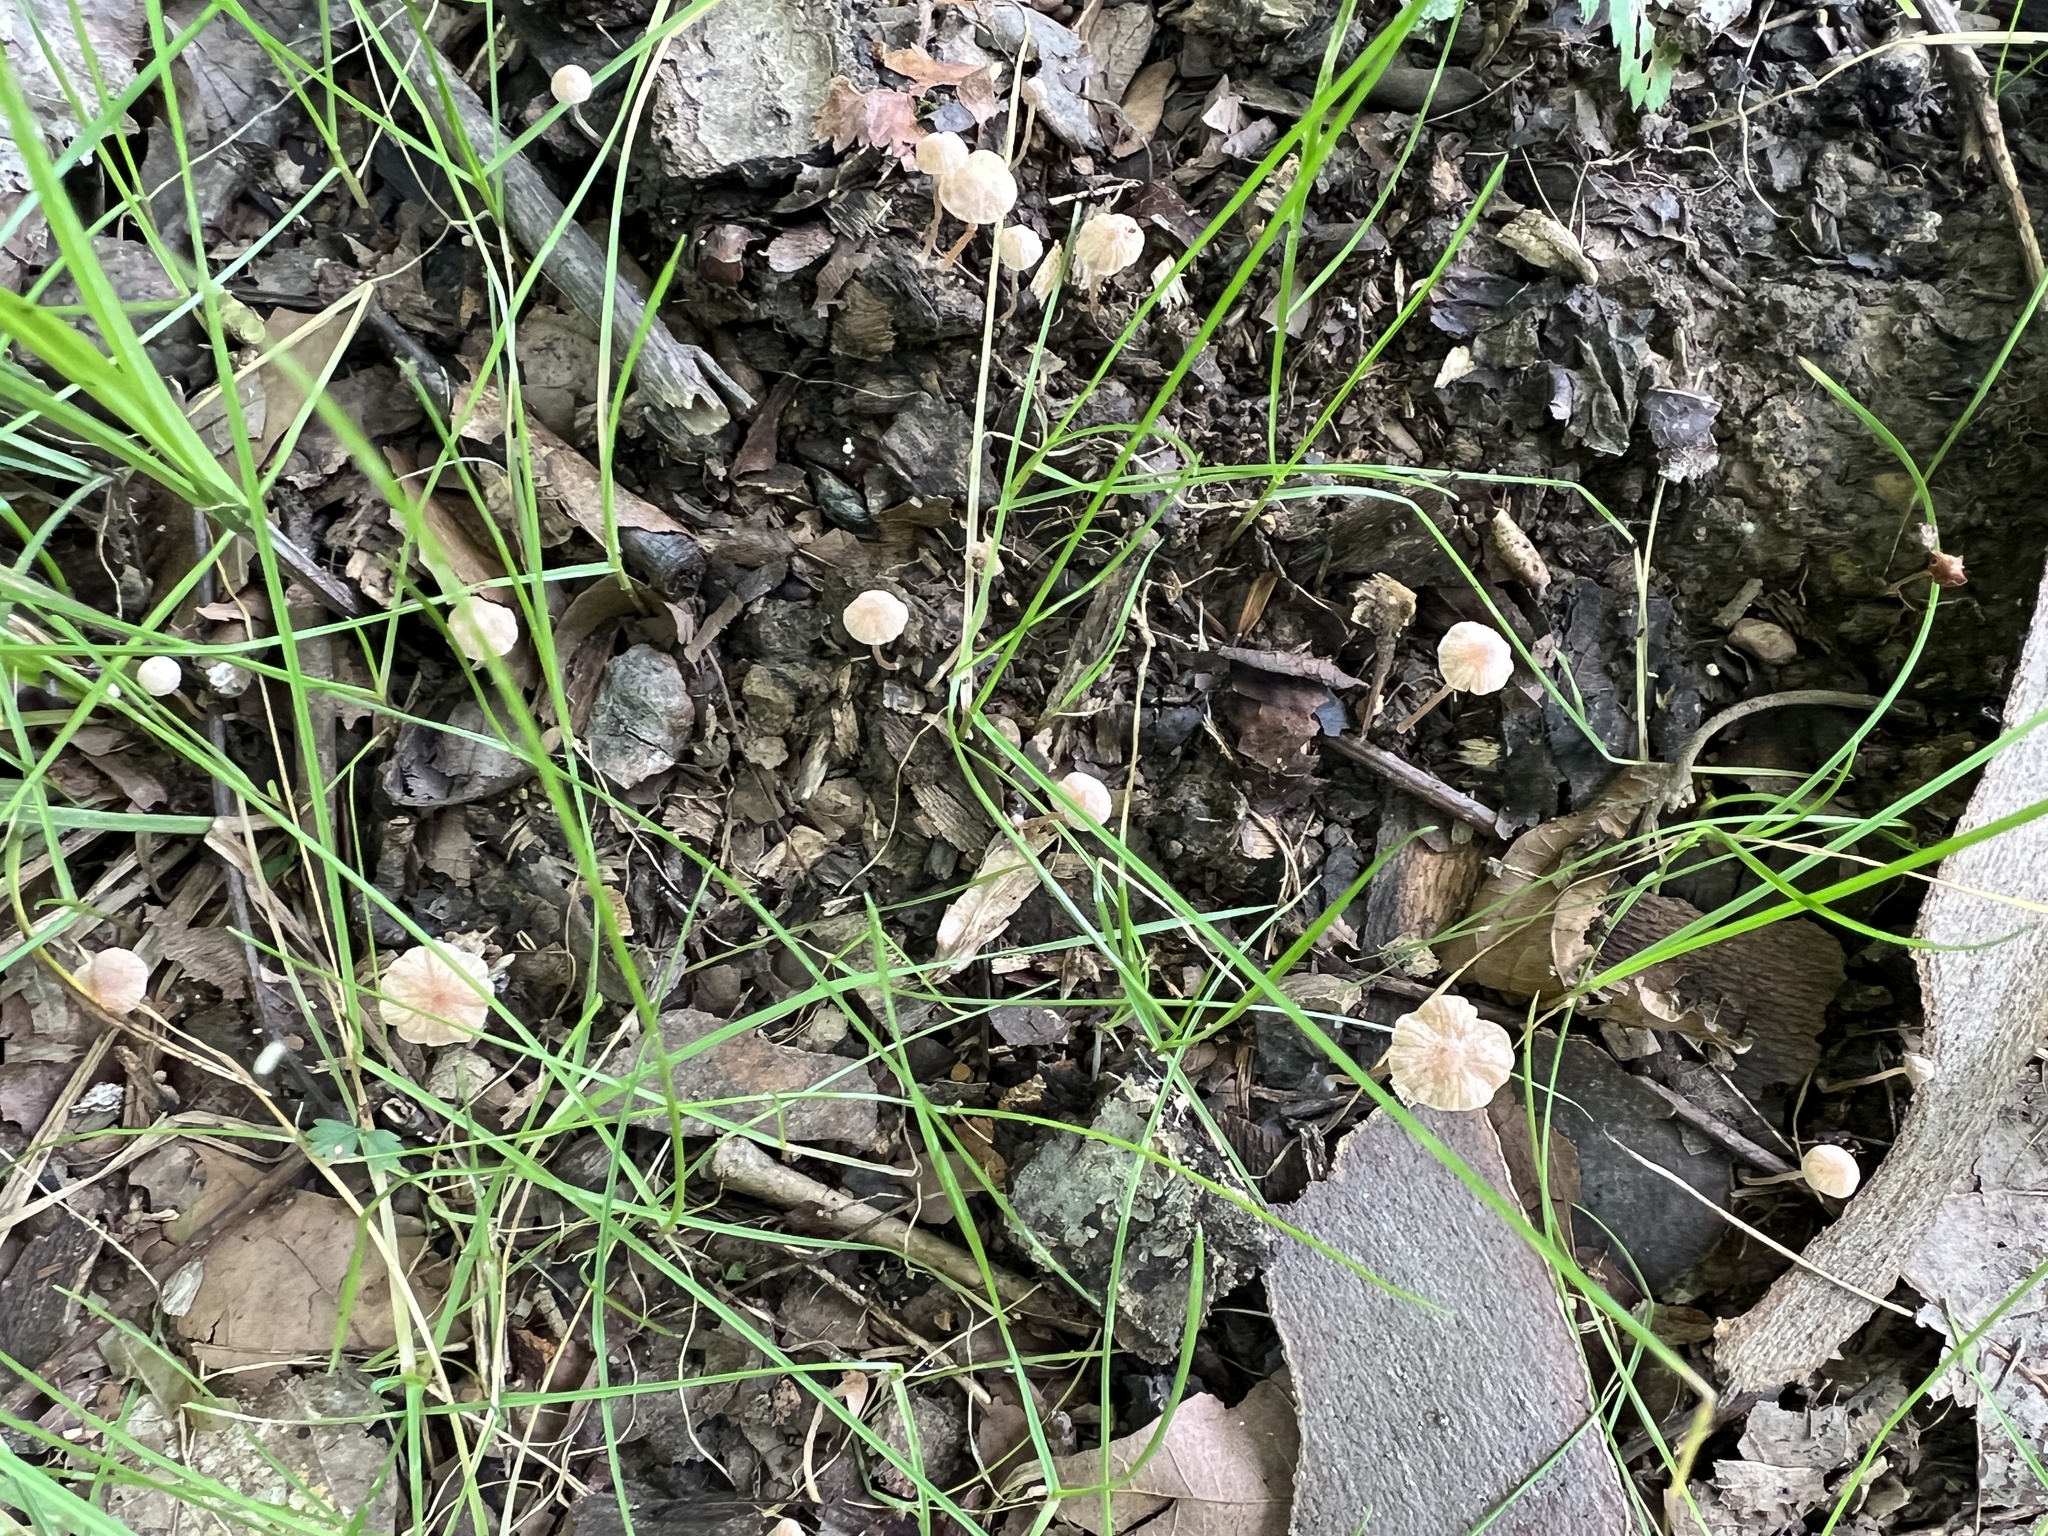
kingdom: Fungi
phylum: Basidiomycota
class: Agaricomycetes
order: Agaricales
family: Omphalotaceae
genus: Mycetinis
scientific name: Mycetinis opacus
